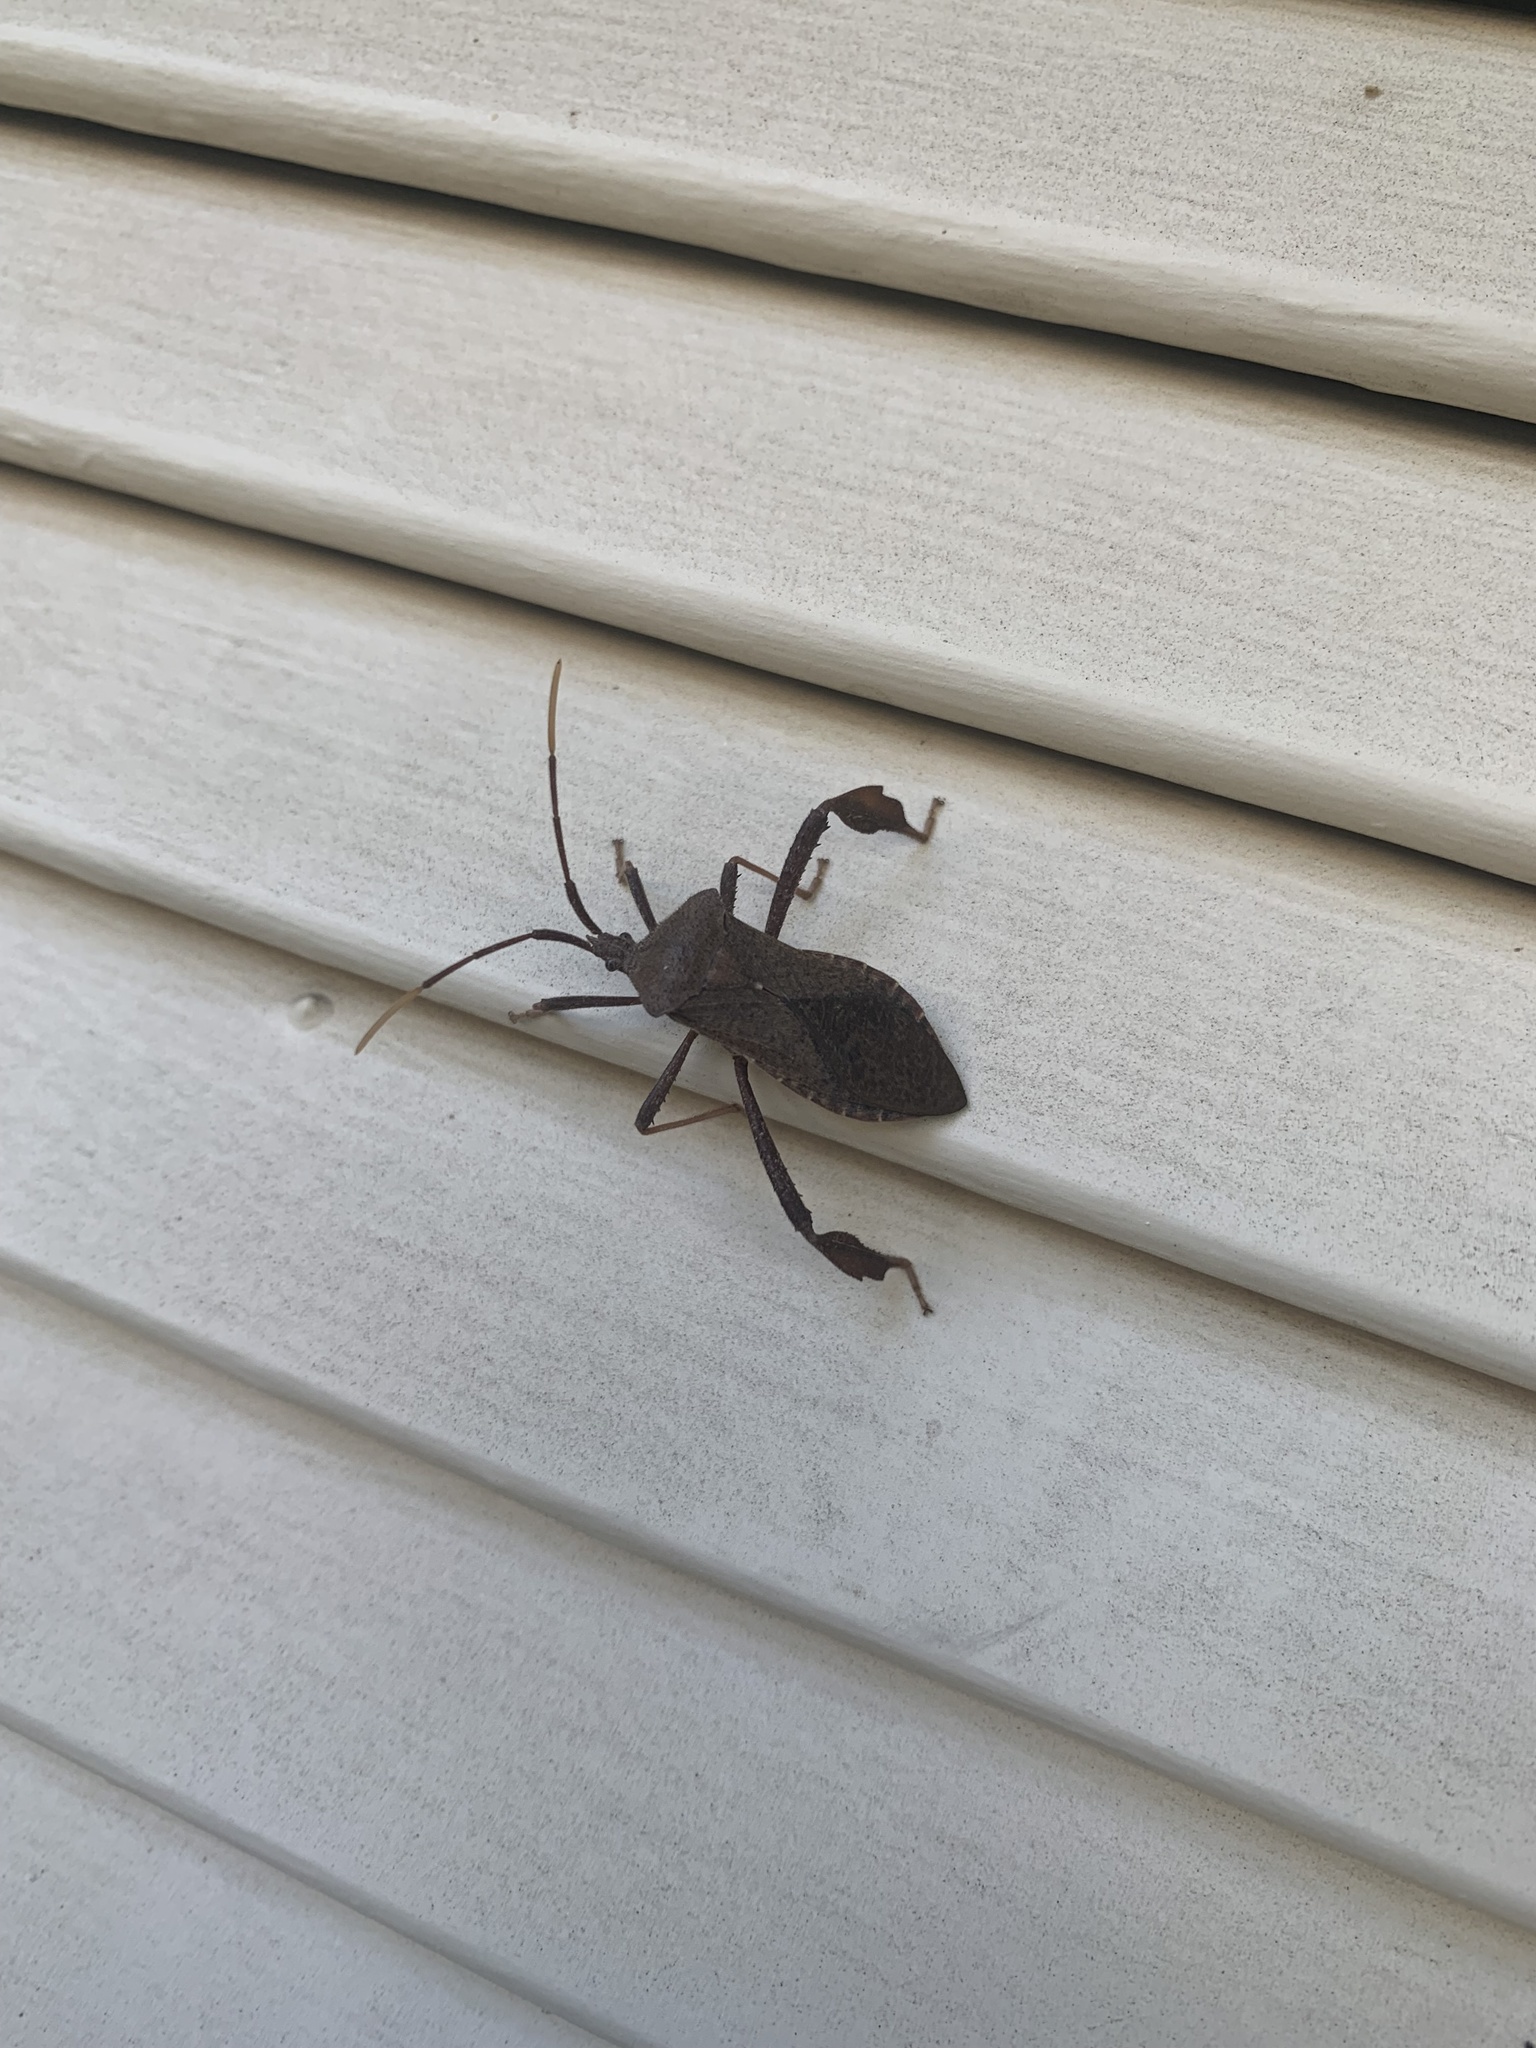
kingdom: Animalia
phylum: Arthropoda
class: Insecta
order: Hemiptera
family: Coreidae
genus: Acanthocephala
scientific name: Acanthocephala terminalis
